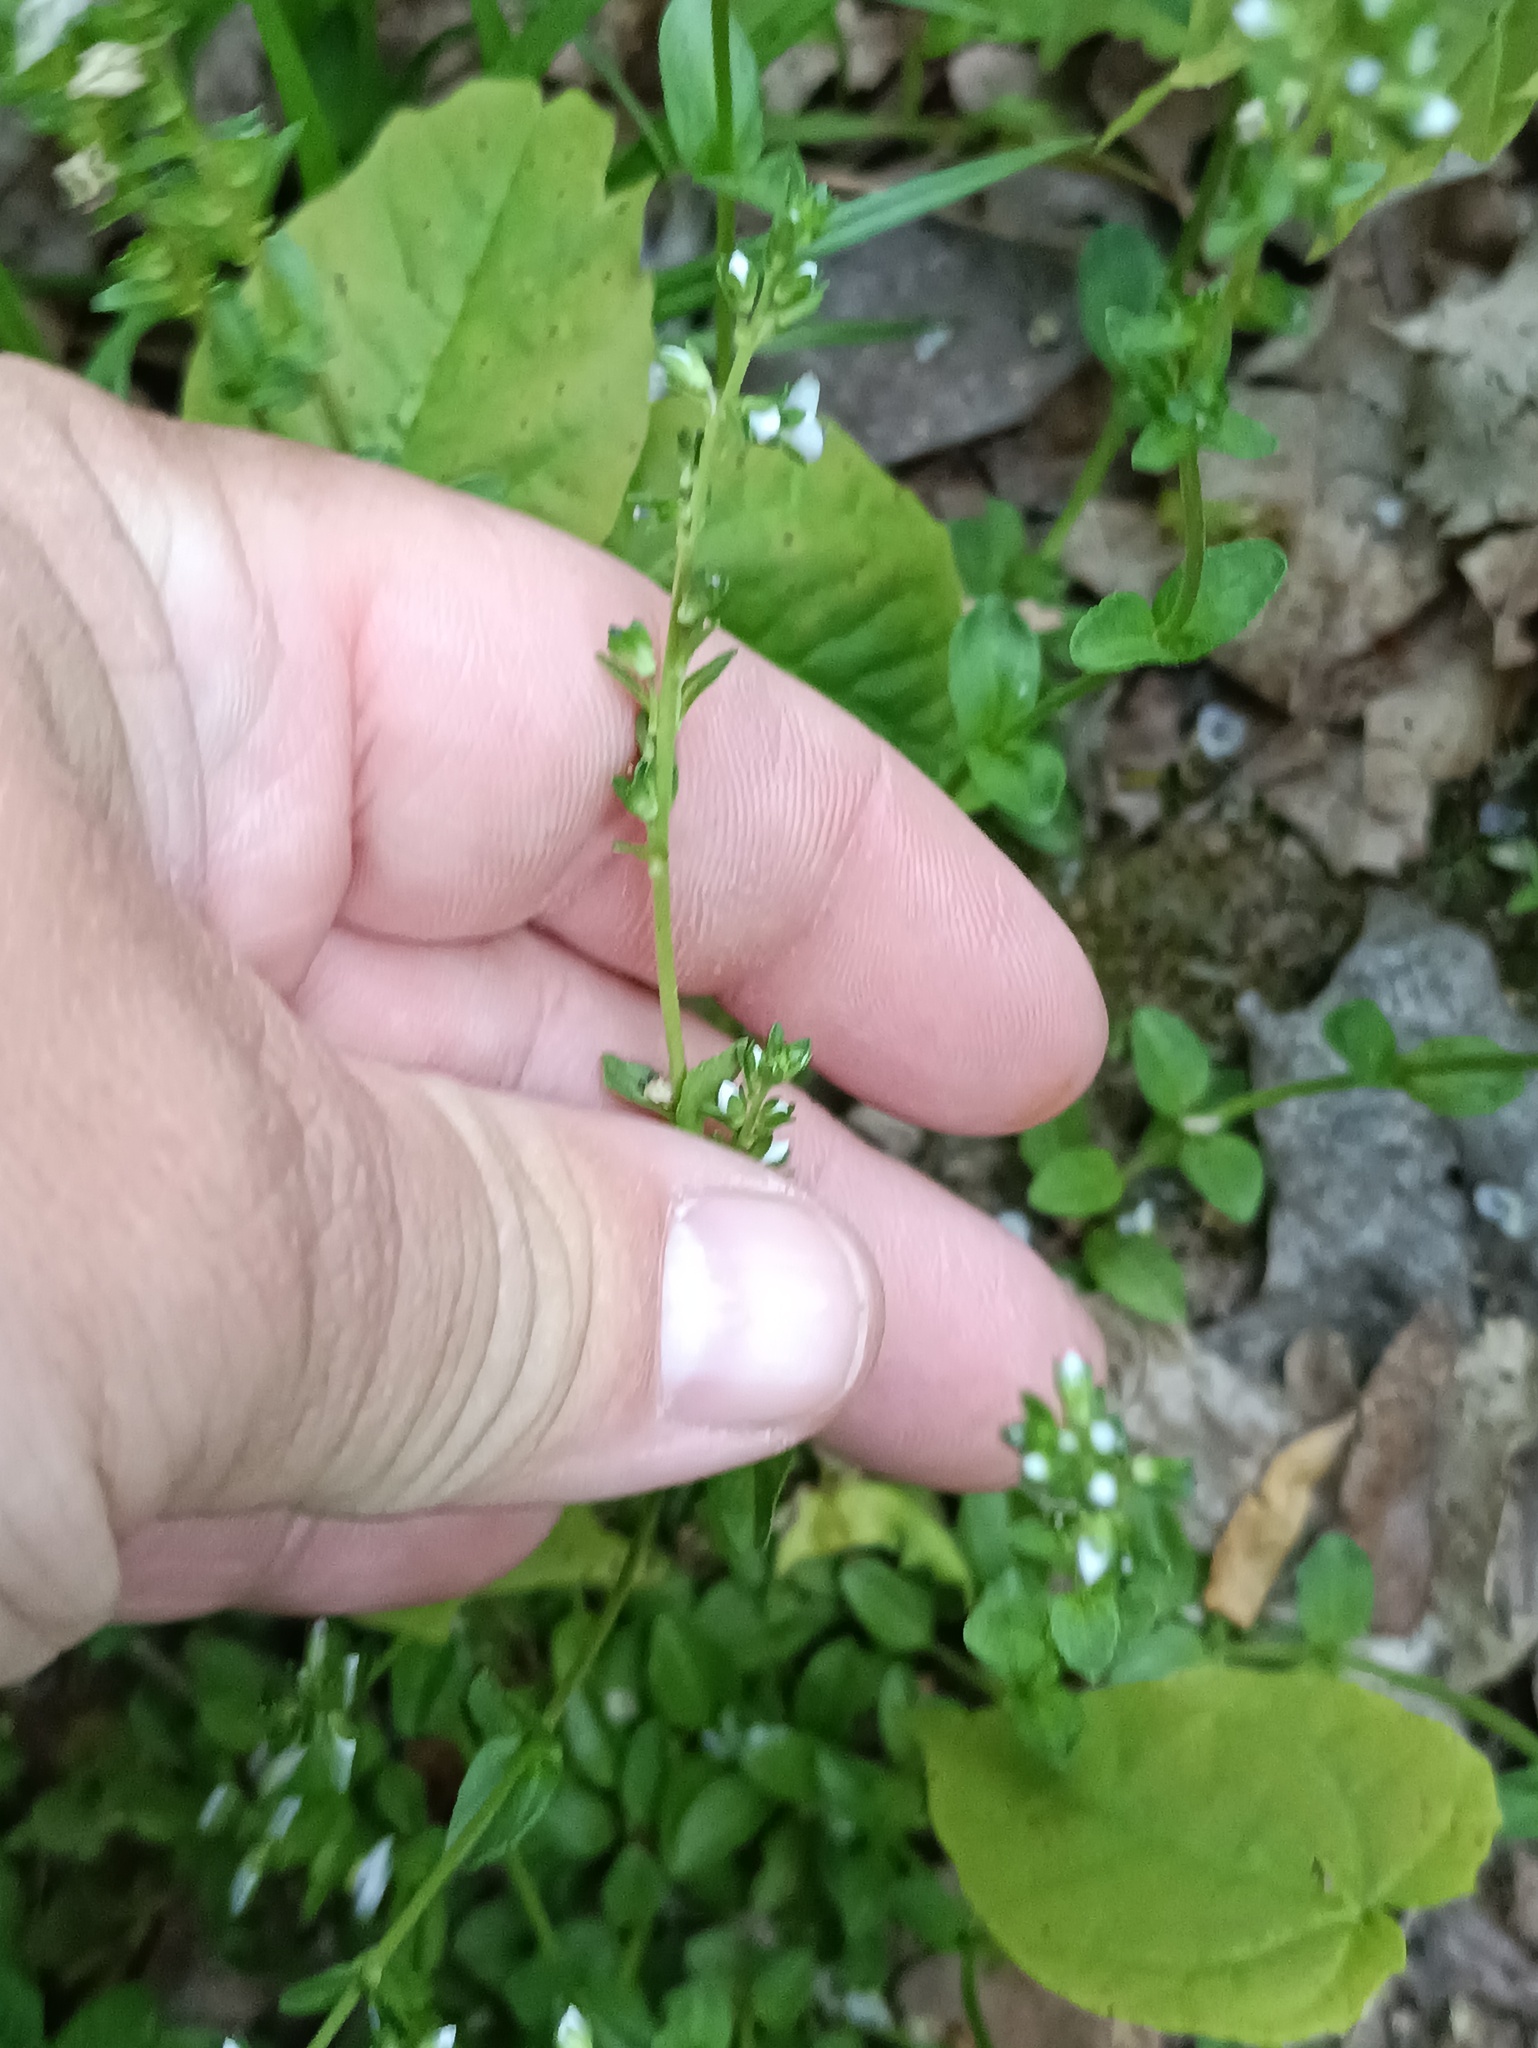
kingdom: Plantae
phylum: Tracheophyta
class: Magnoliopsida
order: Lamiales
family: Plantaginaceae
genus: Veronica
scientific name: Veronica serpyllifolia
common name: Thyme-leaved speedwell
